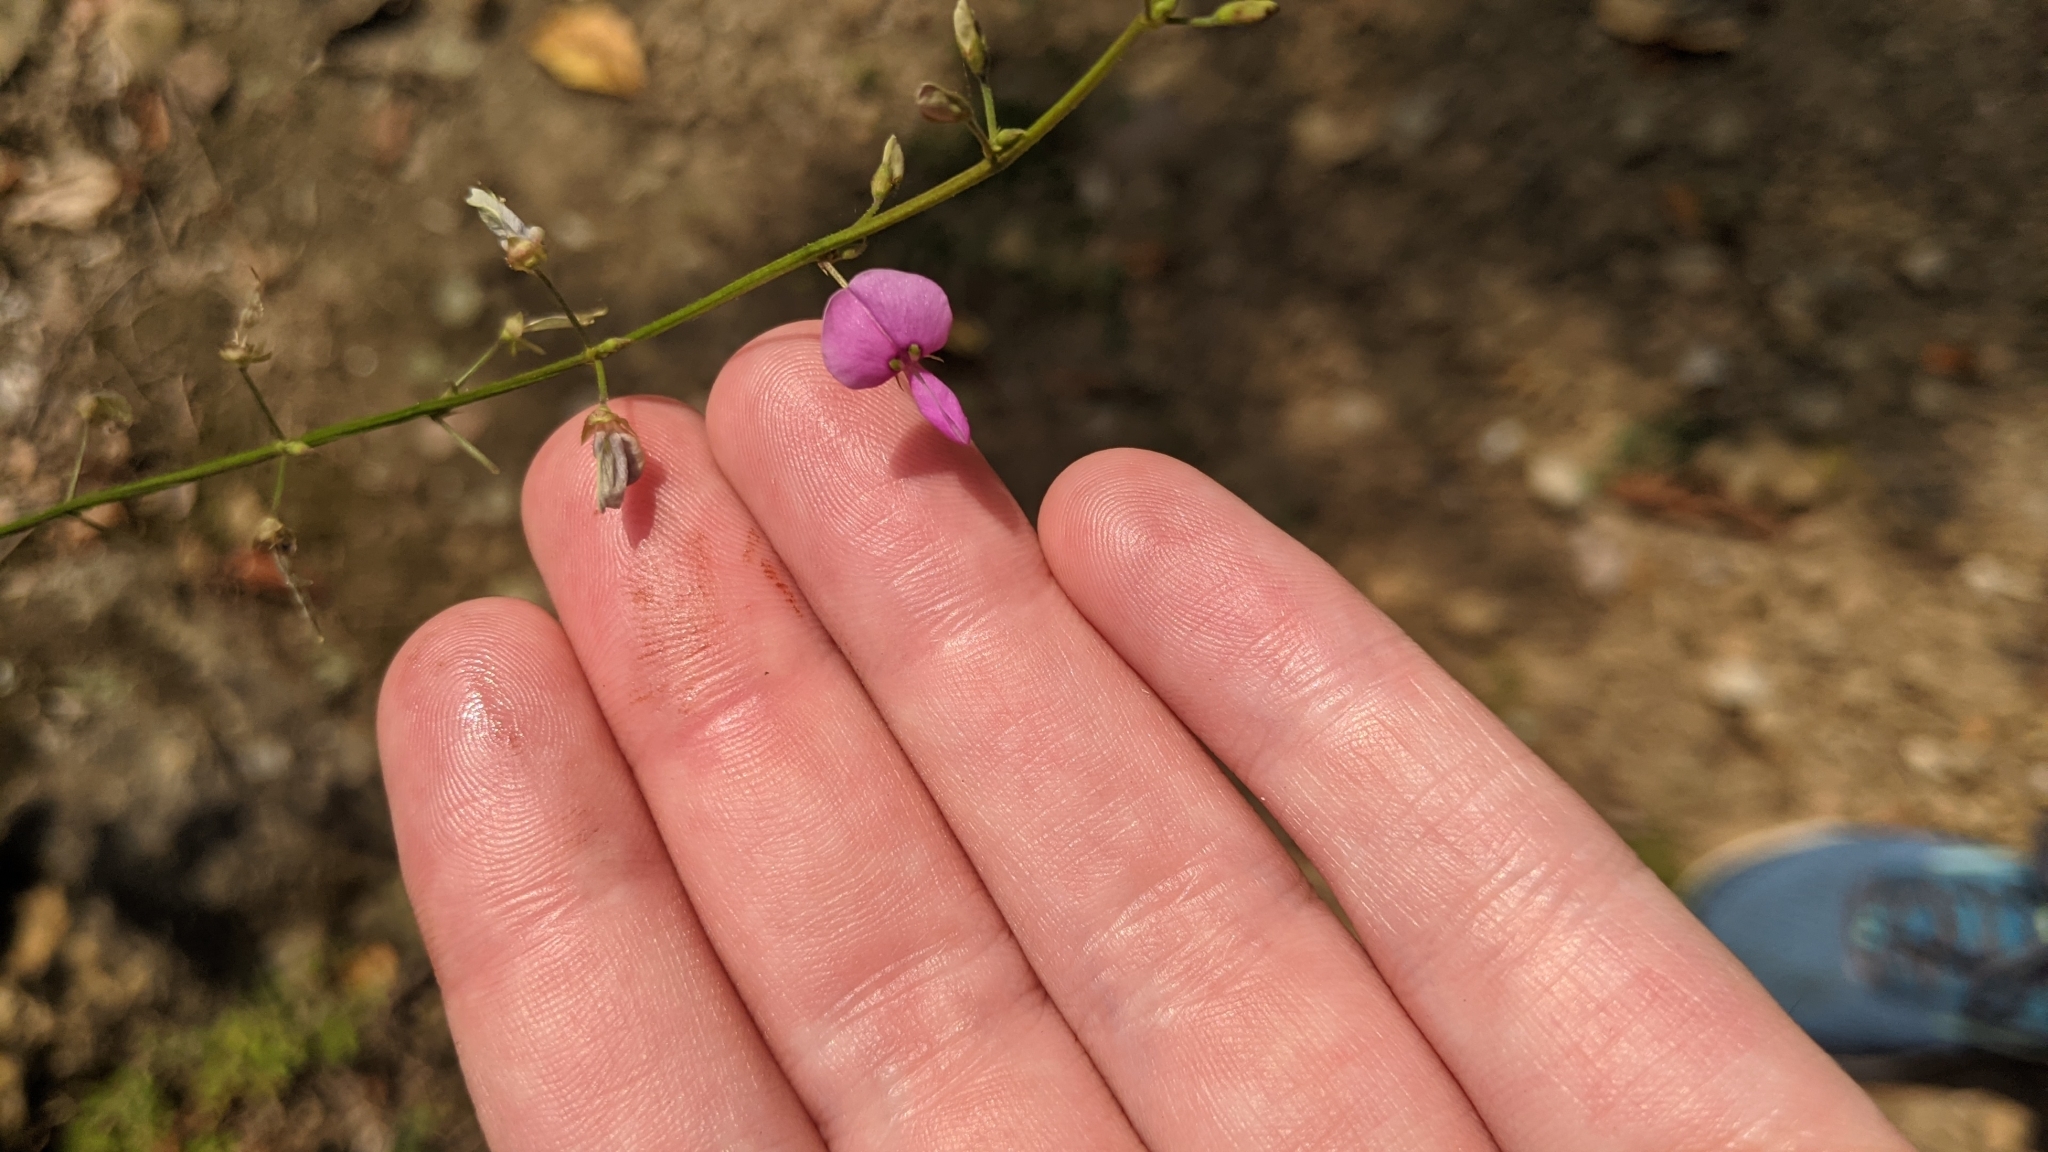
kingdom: Plantae
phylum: Tracheophyta
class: Magnoliopsida
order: Fabales
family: Fabaceae
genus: Desmodium
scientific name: Desmodium
